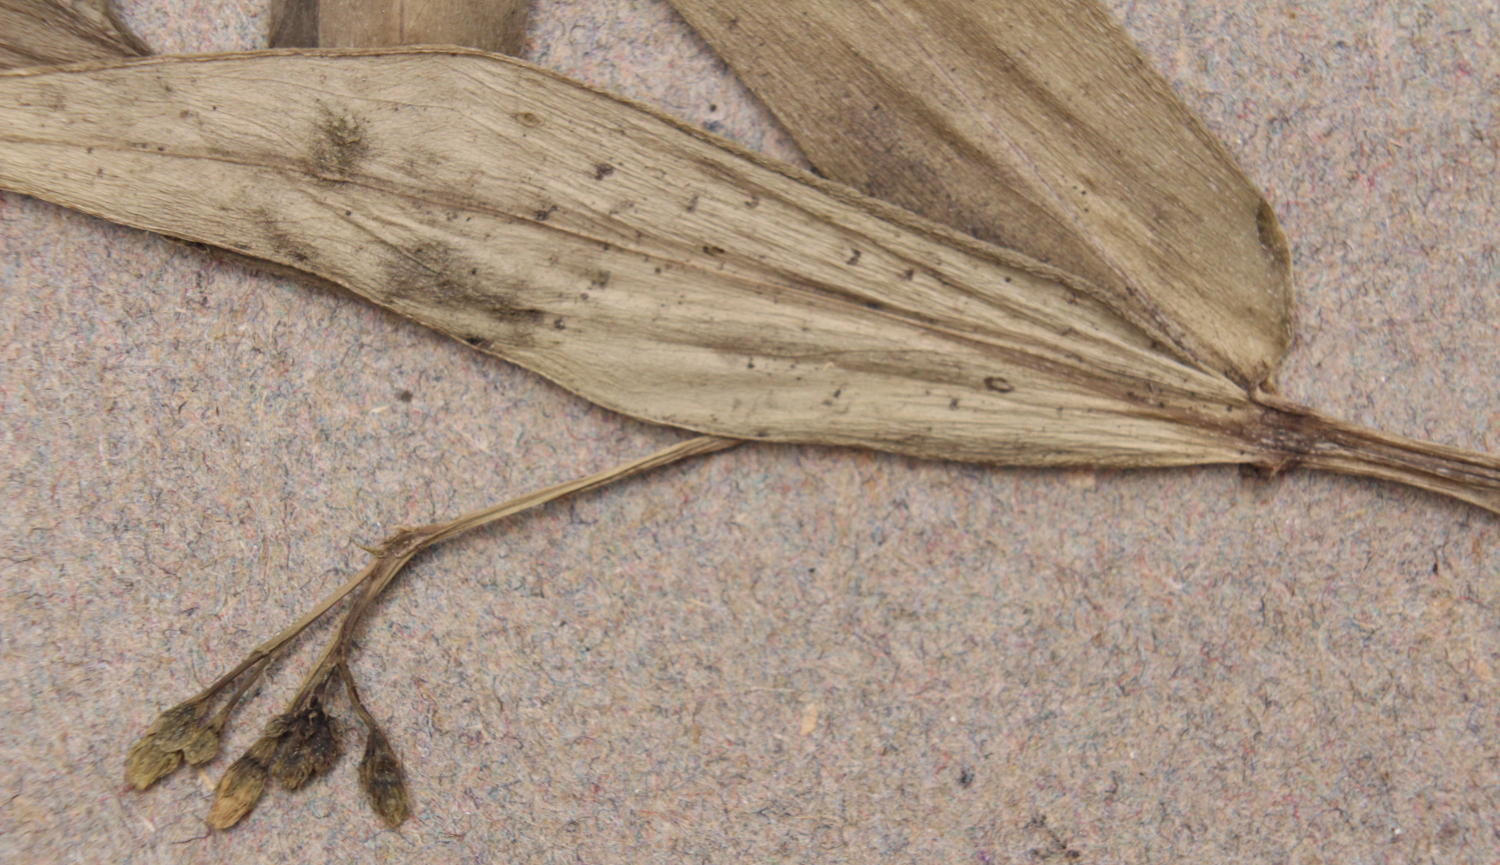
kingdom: Plantae
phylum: Tracheophyta
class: Magnoliopsida
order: Gentianales
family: Rubiaceae
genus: Pentodon
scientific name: Pentodon pentandrus
